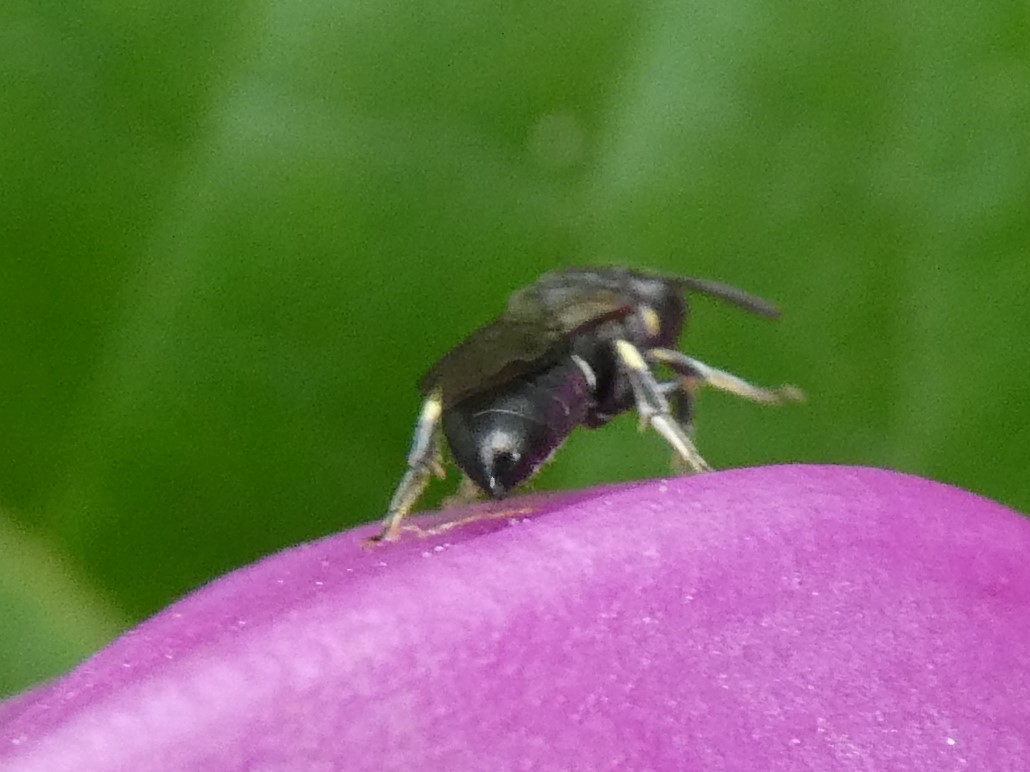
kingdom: Animalia
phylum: Arthropoda
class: Insecta
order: Hymenoptera
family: Colletidae
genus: Hylaeus
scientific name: Hylaeus modestus
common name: Yellow-faced bee
